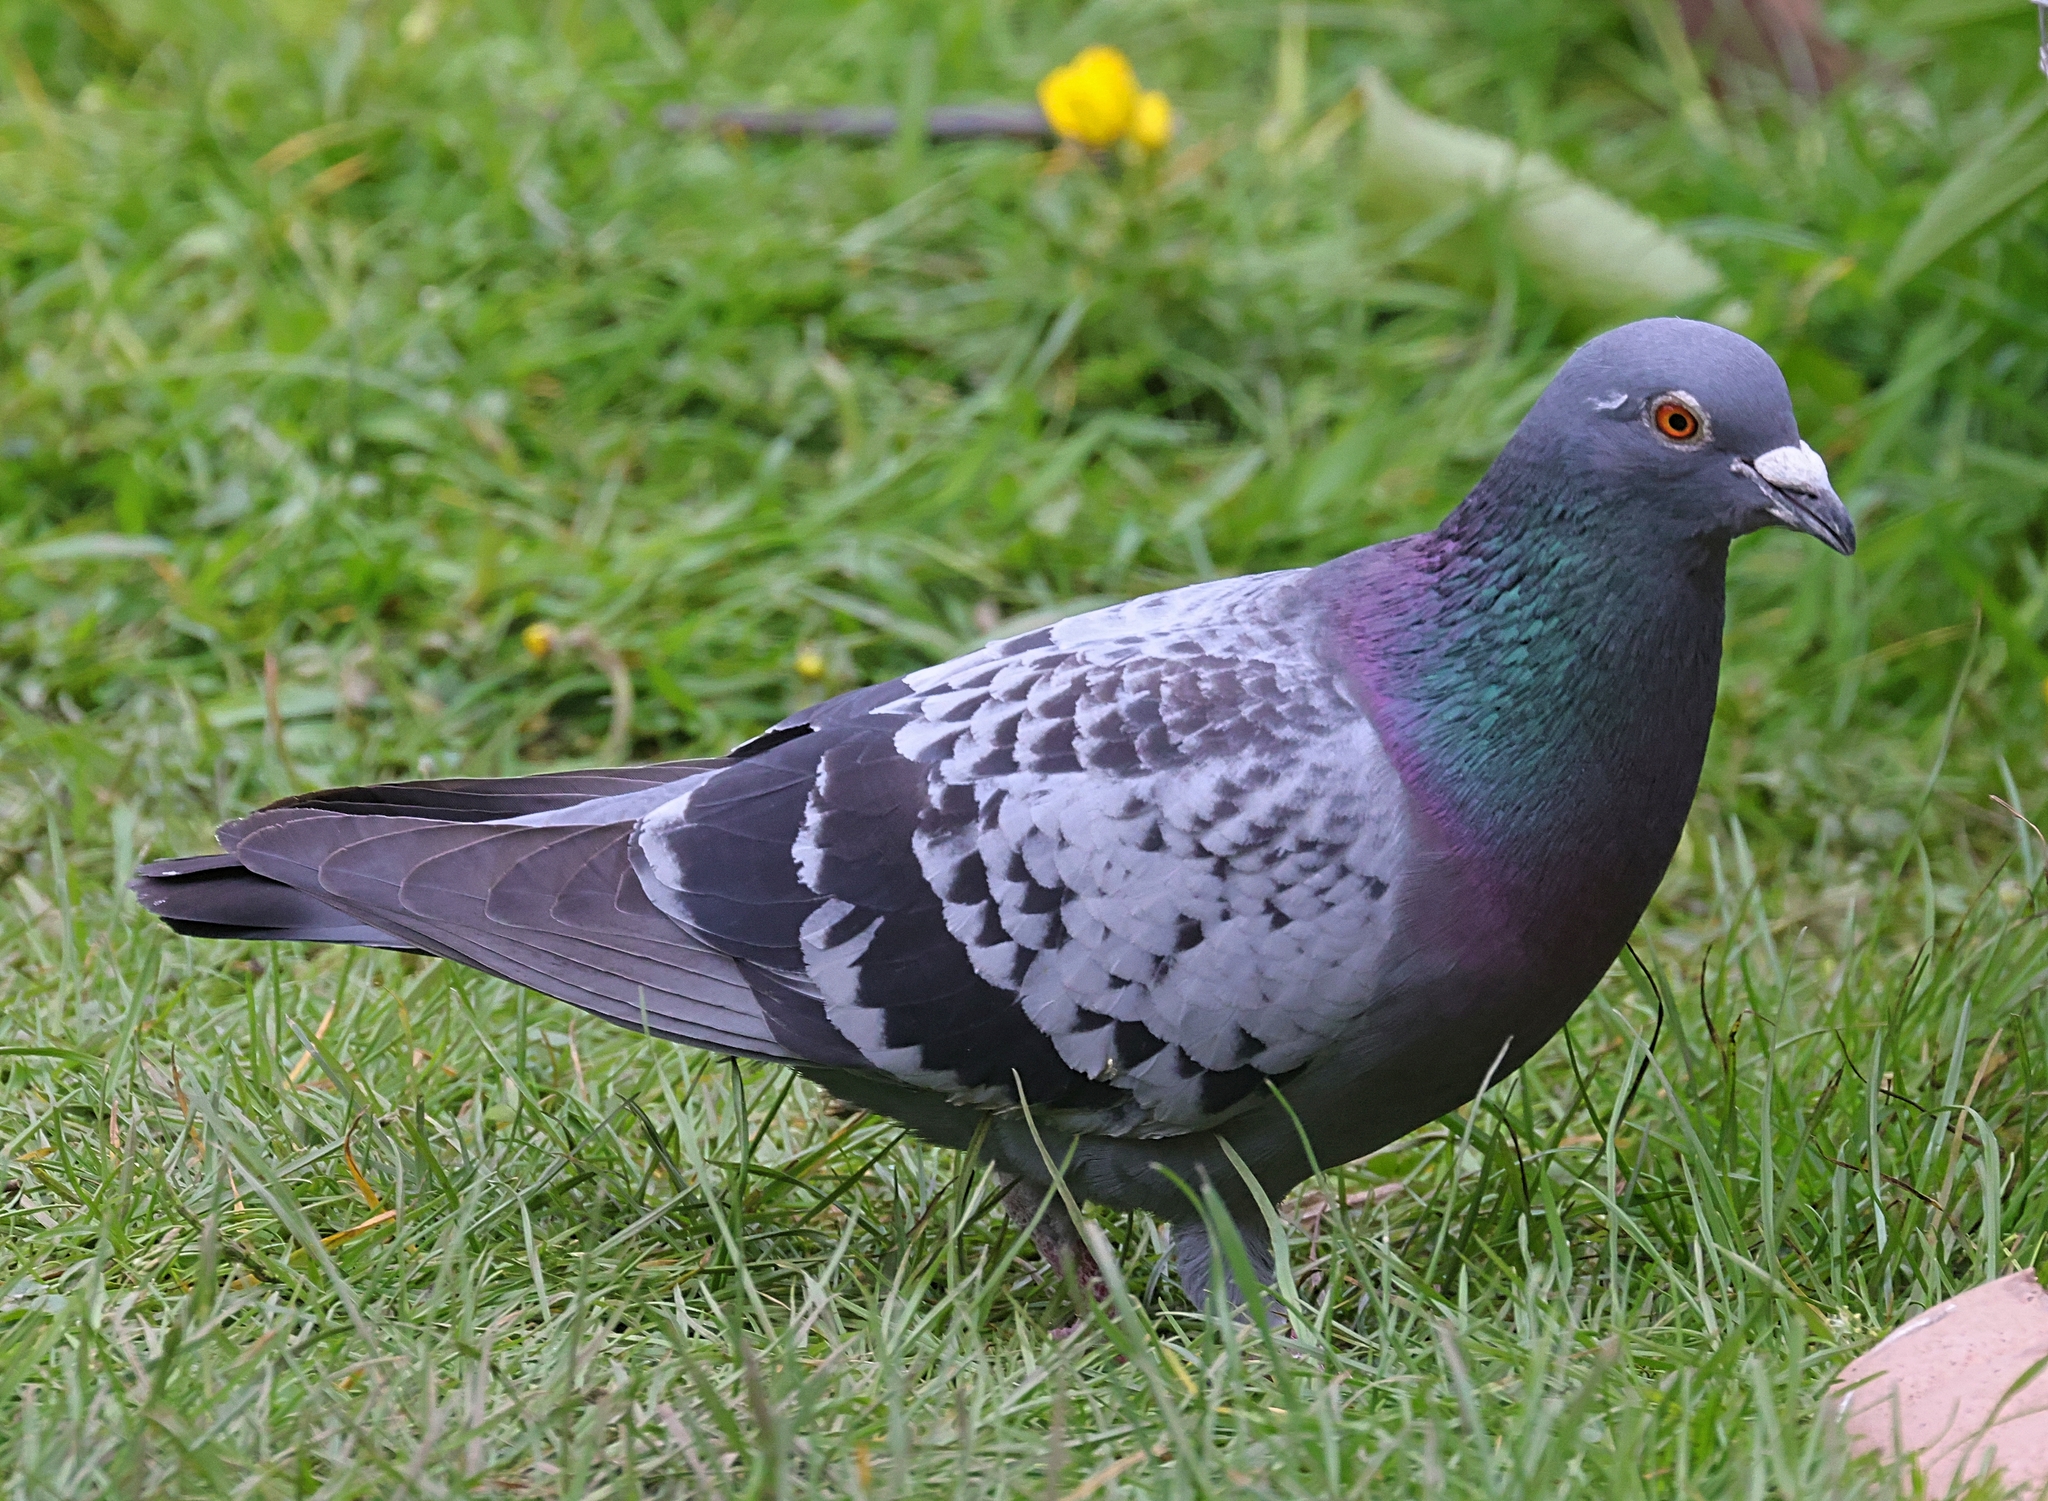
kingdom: Animalia
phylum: Chordata
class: Aves
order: Columbiformes
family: Columbidae
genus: Columba
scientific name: Columba livia
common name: Rock pigeon
